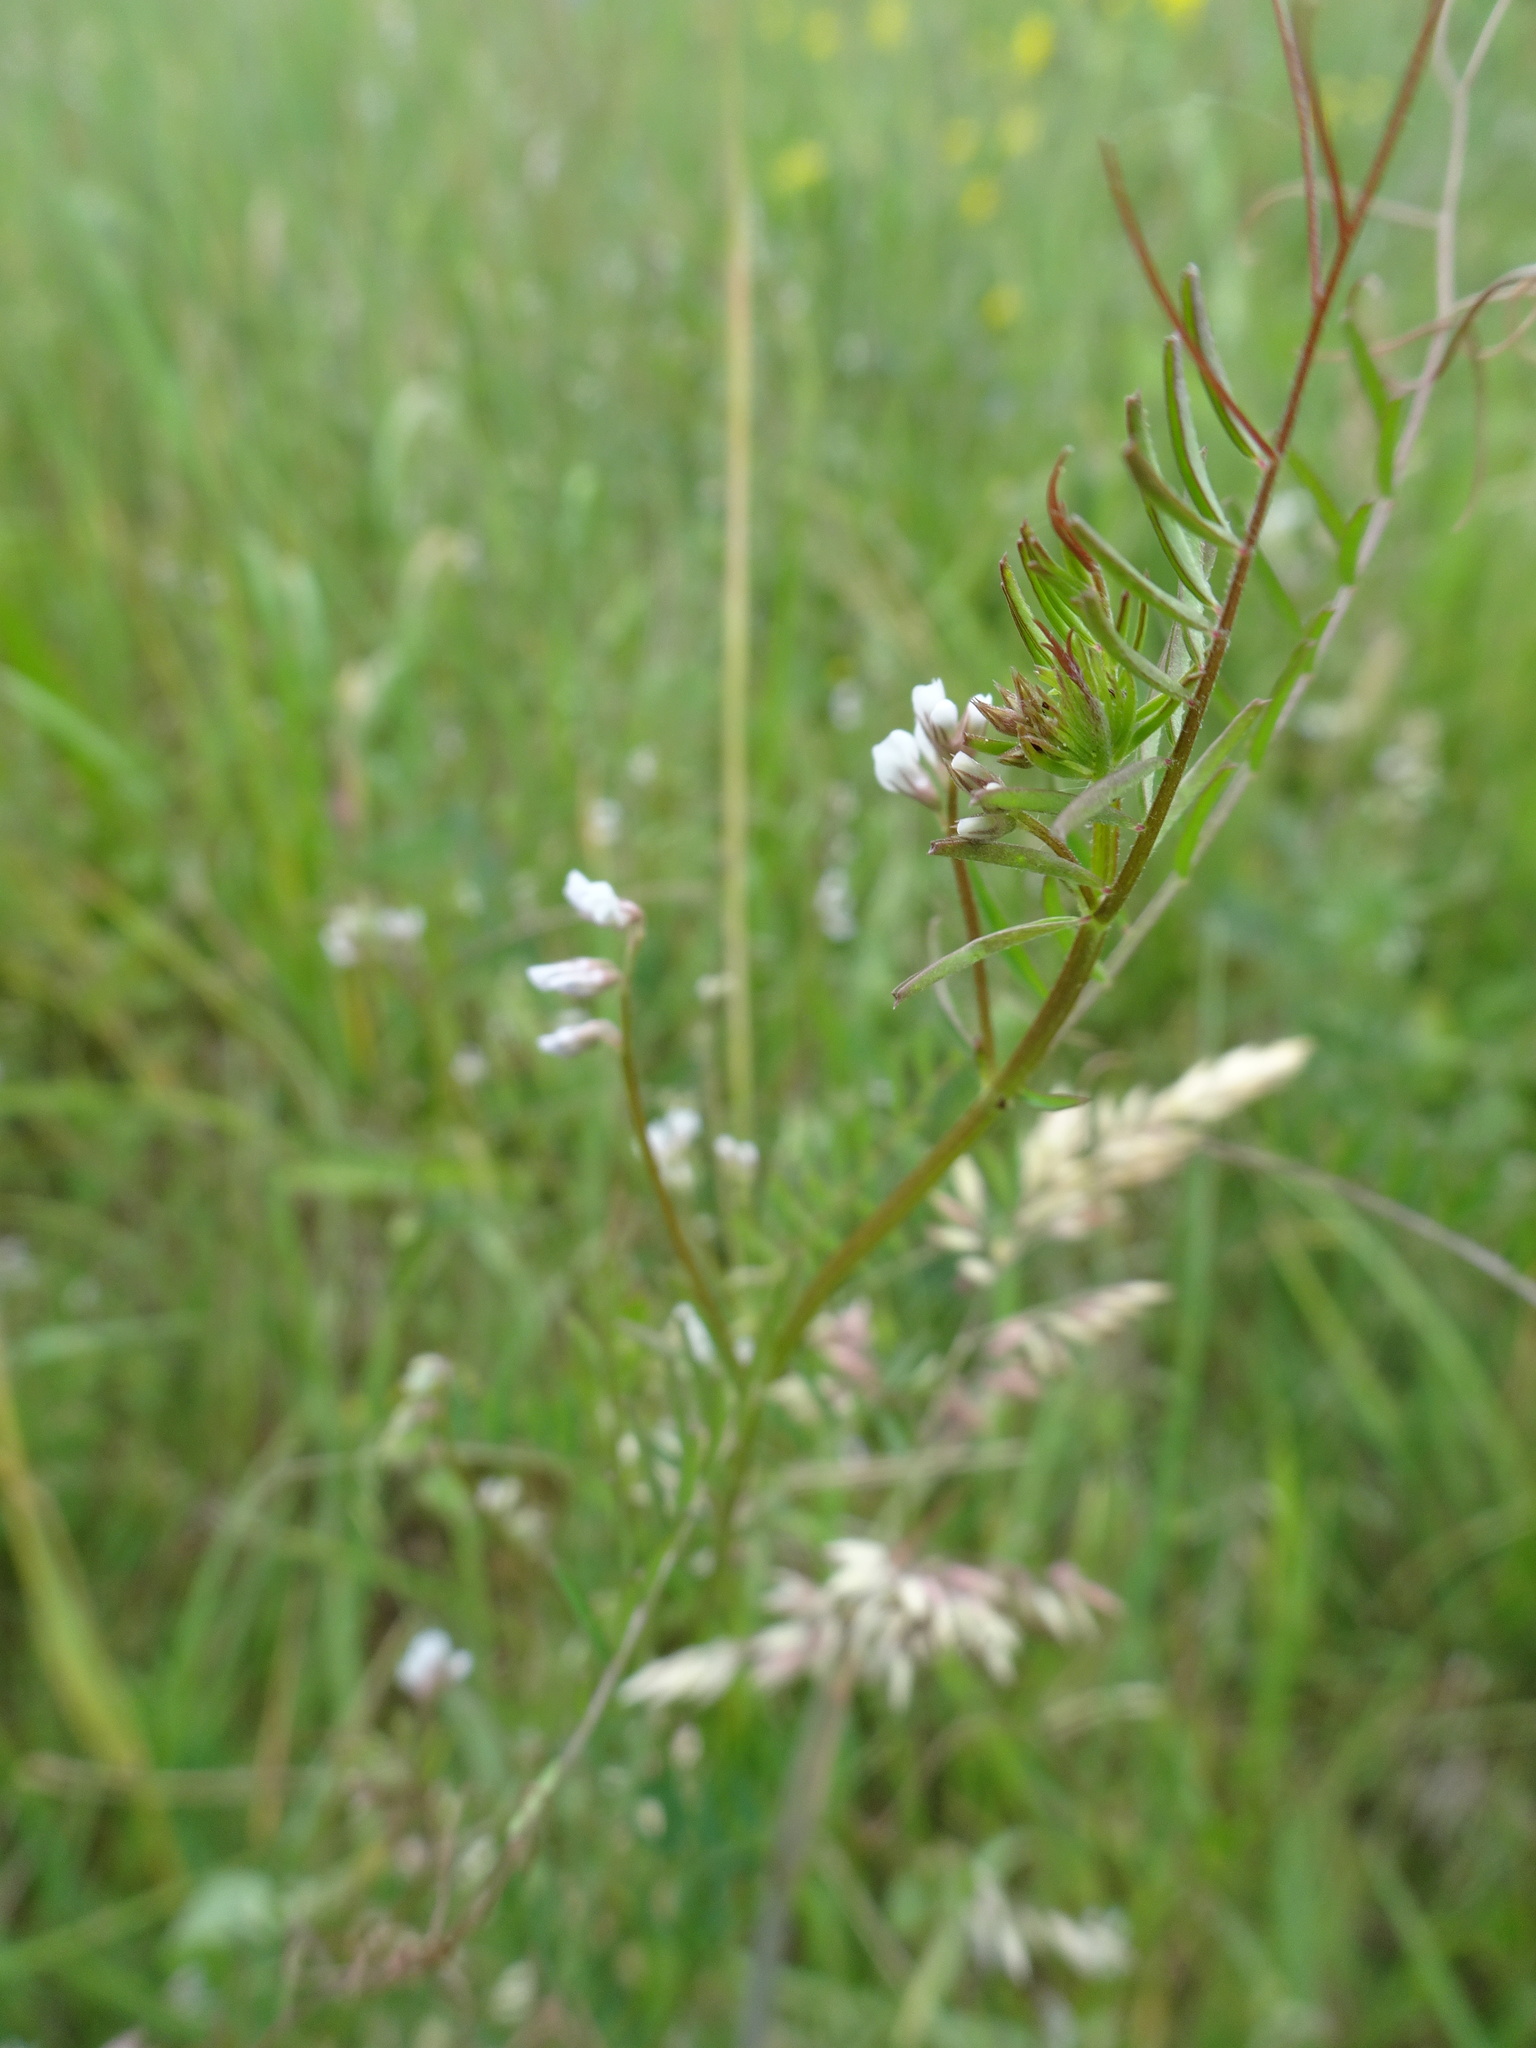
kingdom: Plantae
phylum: Tracheophyta
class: Magnoliopsida
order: Fabales
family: Fabaceae
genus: Vicia
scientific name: Vicia hirsuta
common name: Tiny vetch
